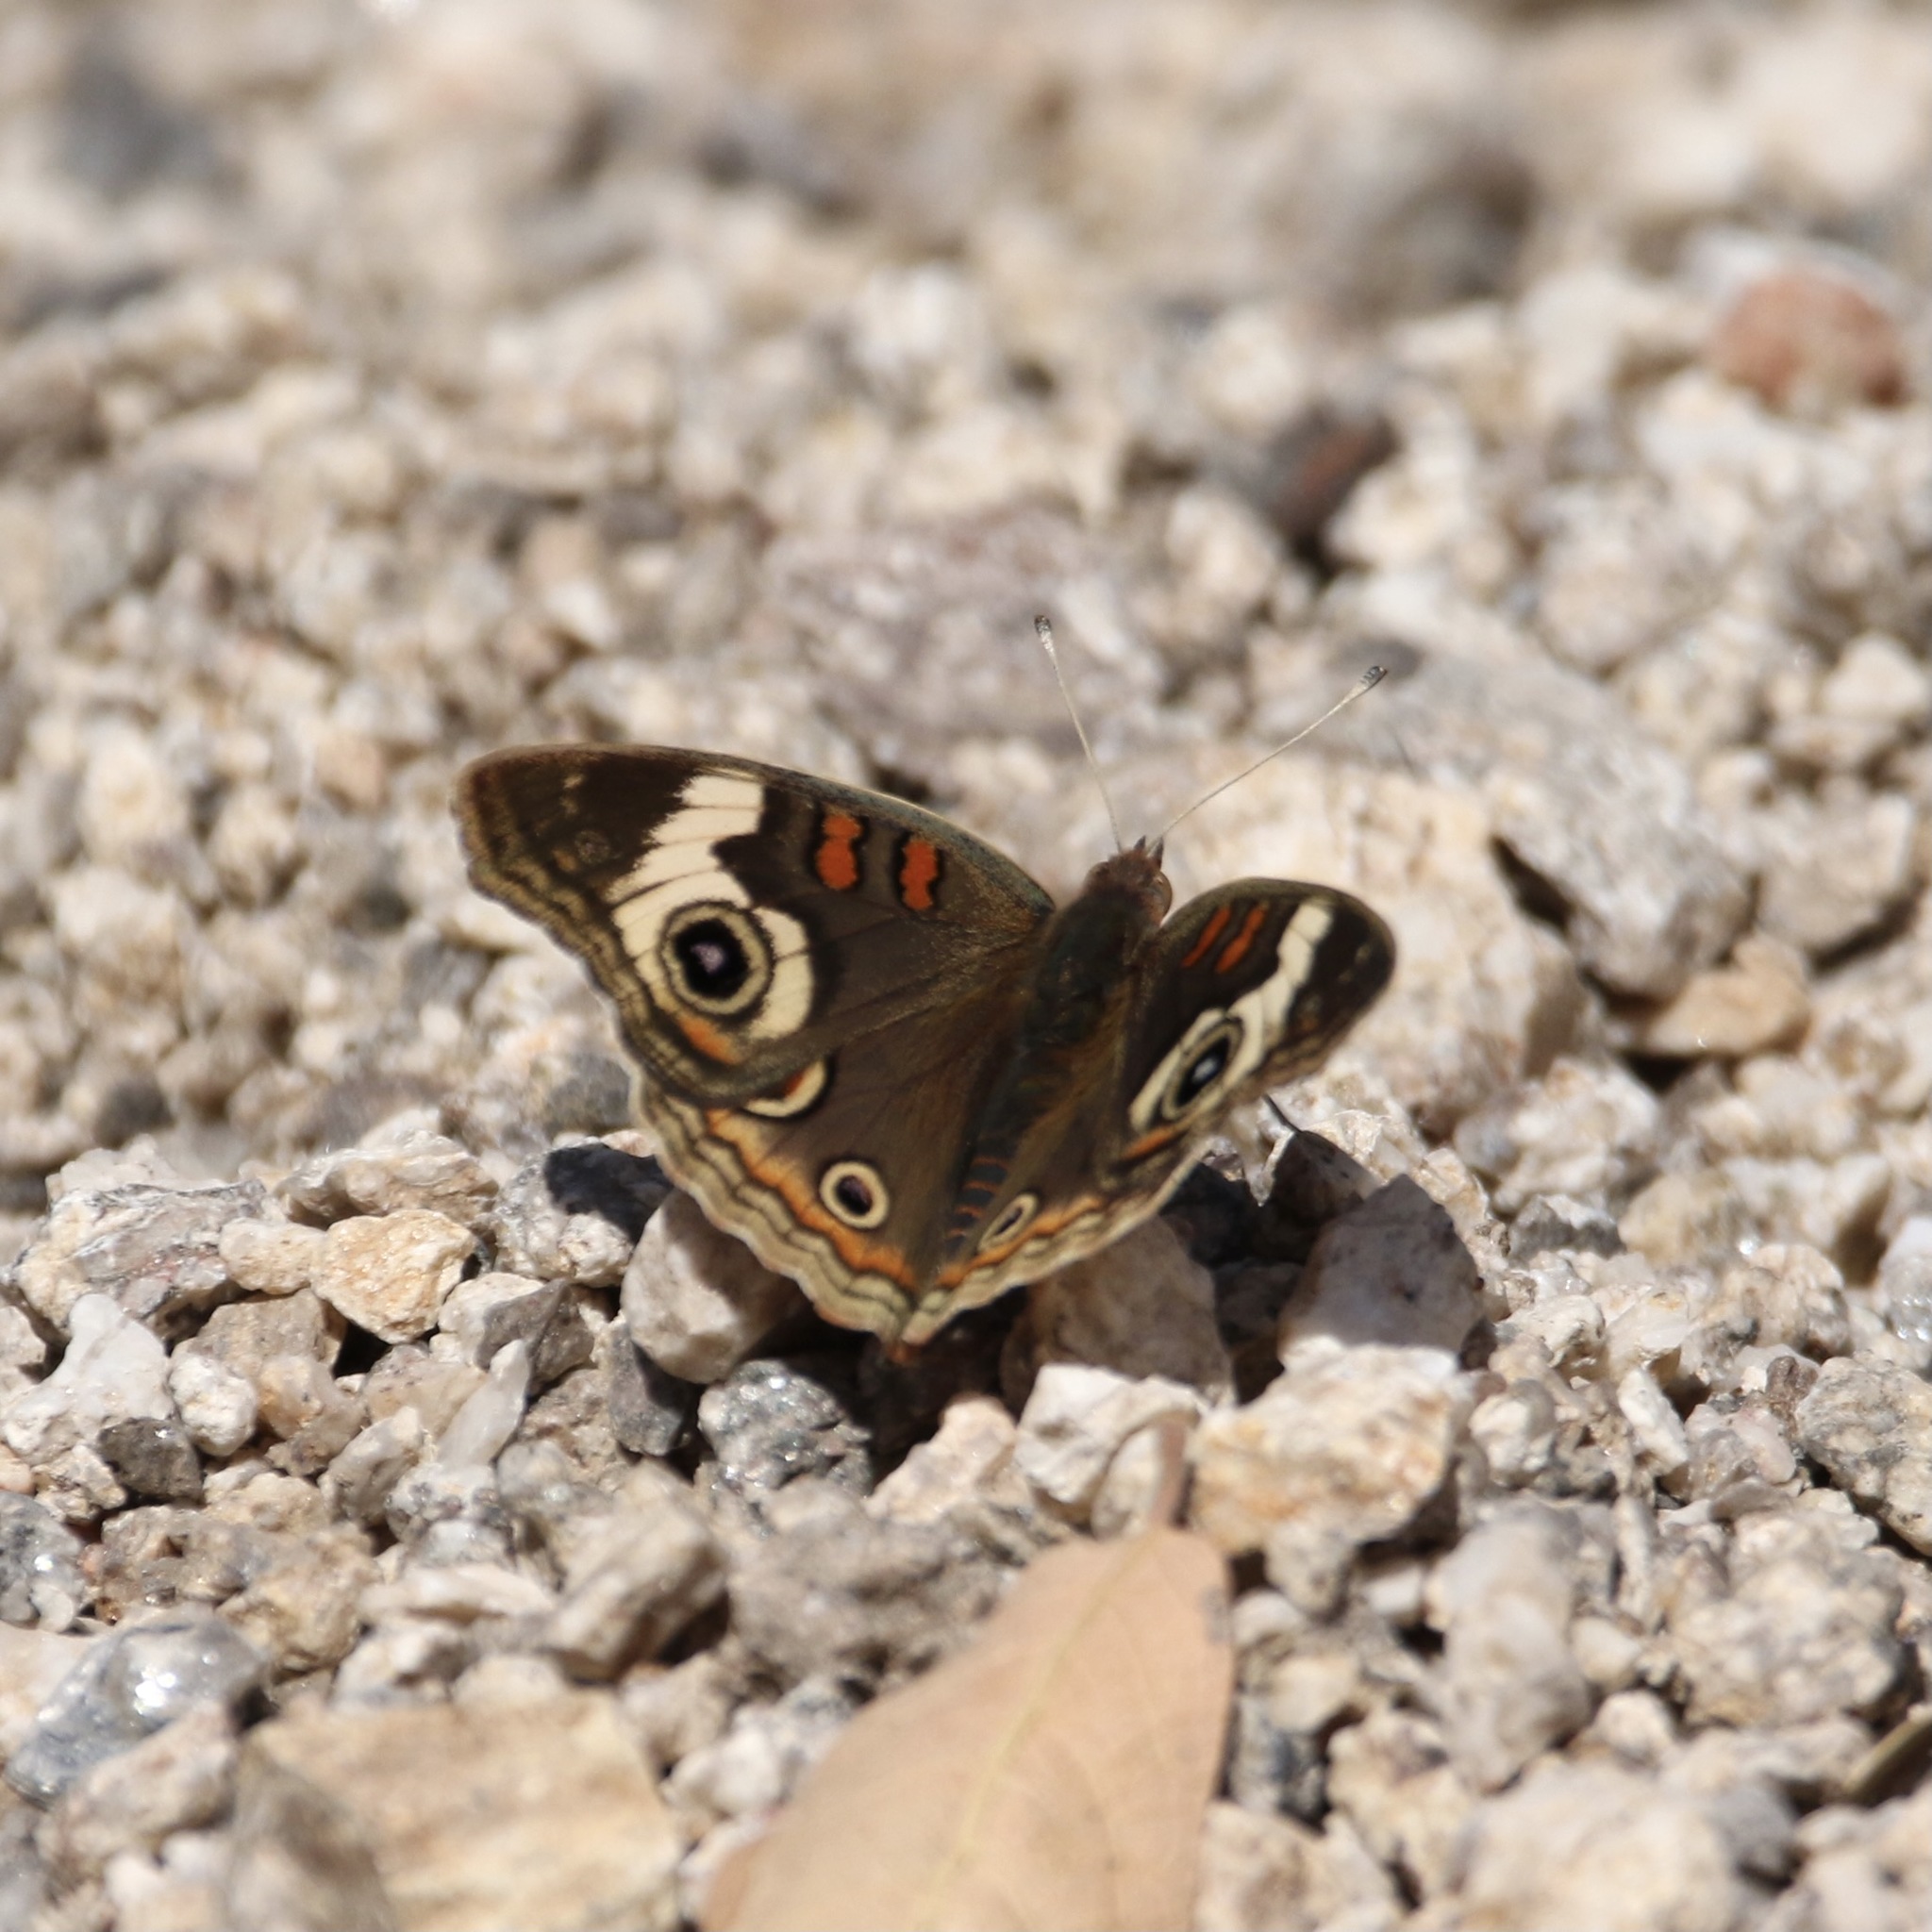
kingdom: Animalia
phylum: Arthropoda
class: Insecta
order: Lepidoptera
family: Nymphalidae
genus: Junonia
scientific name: Junonia grisea
